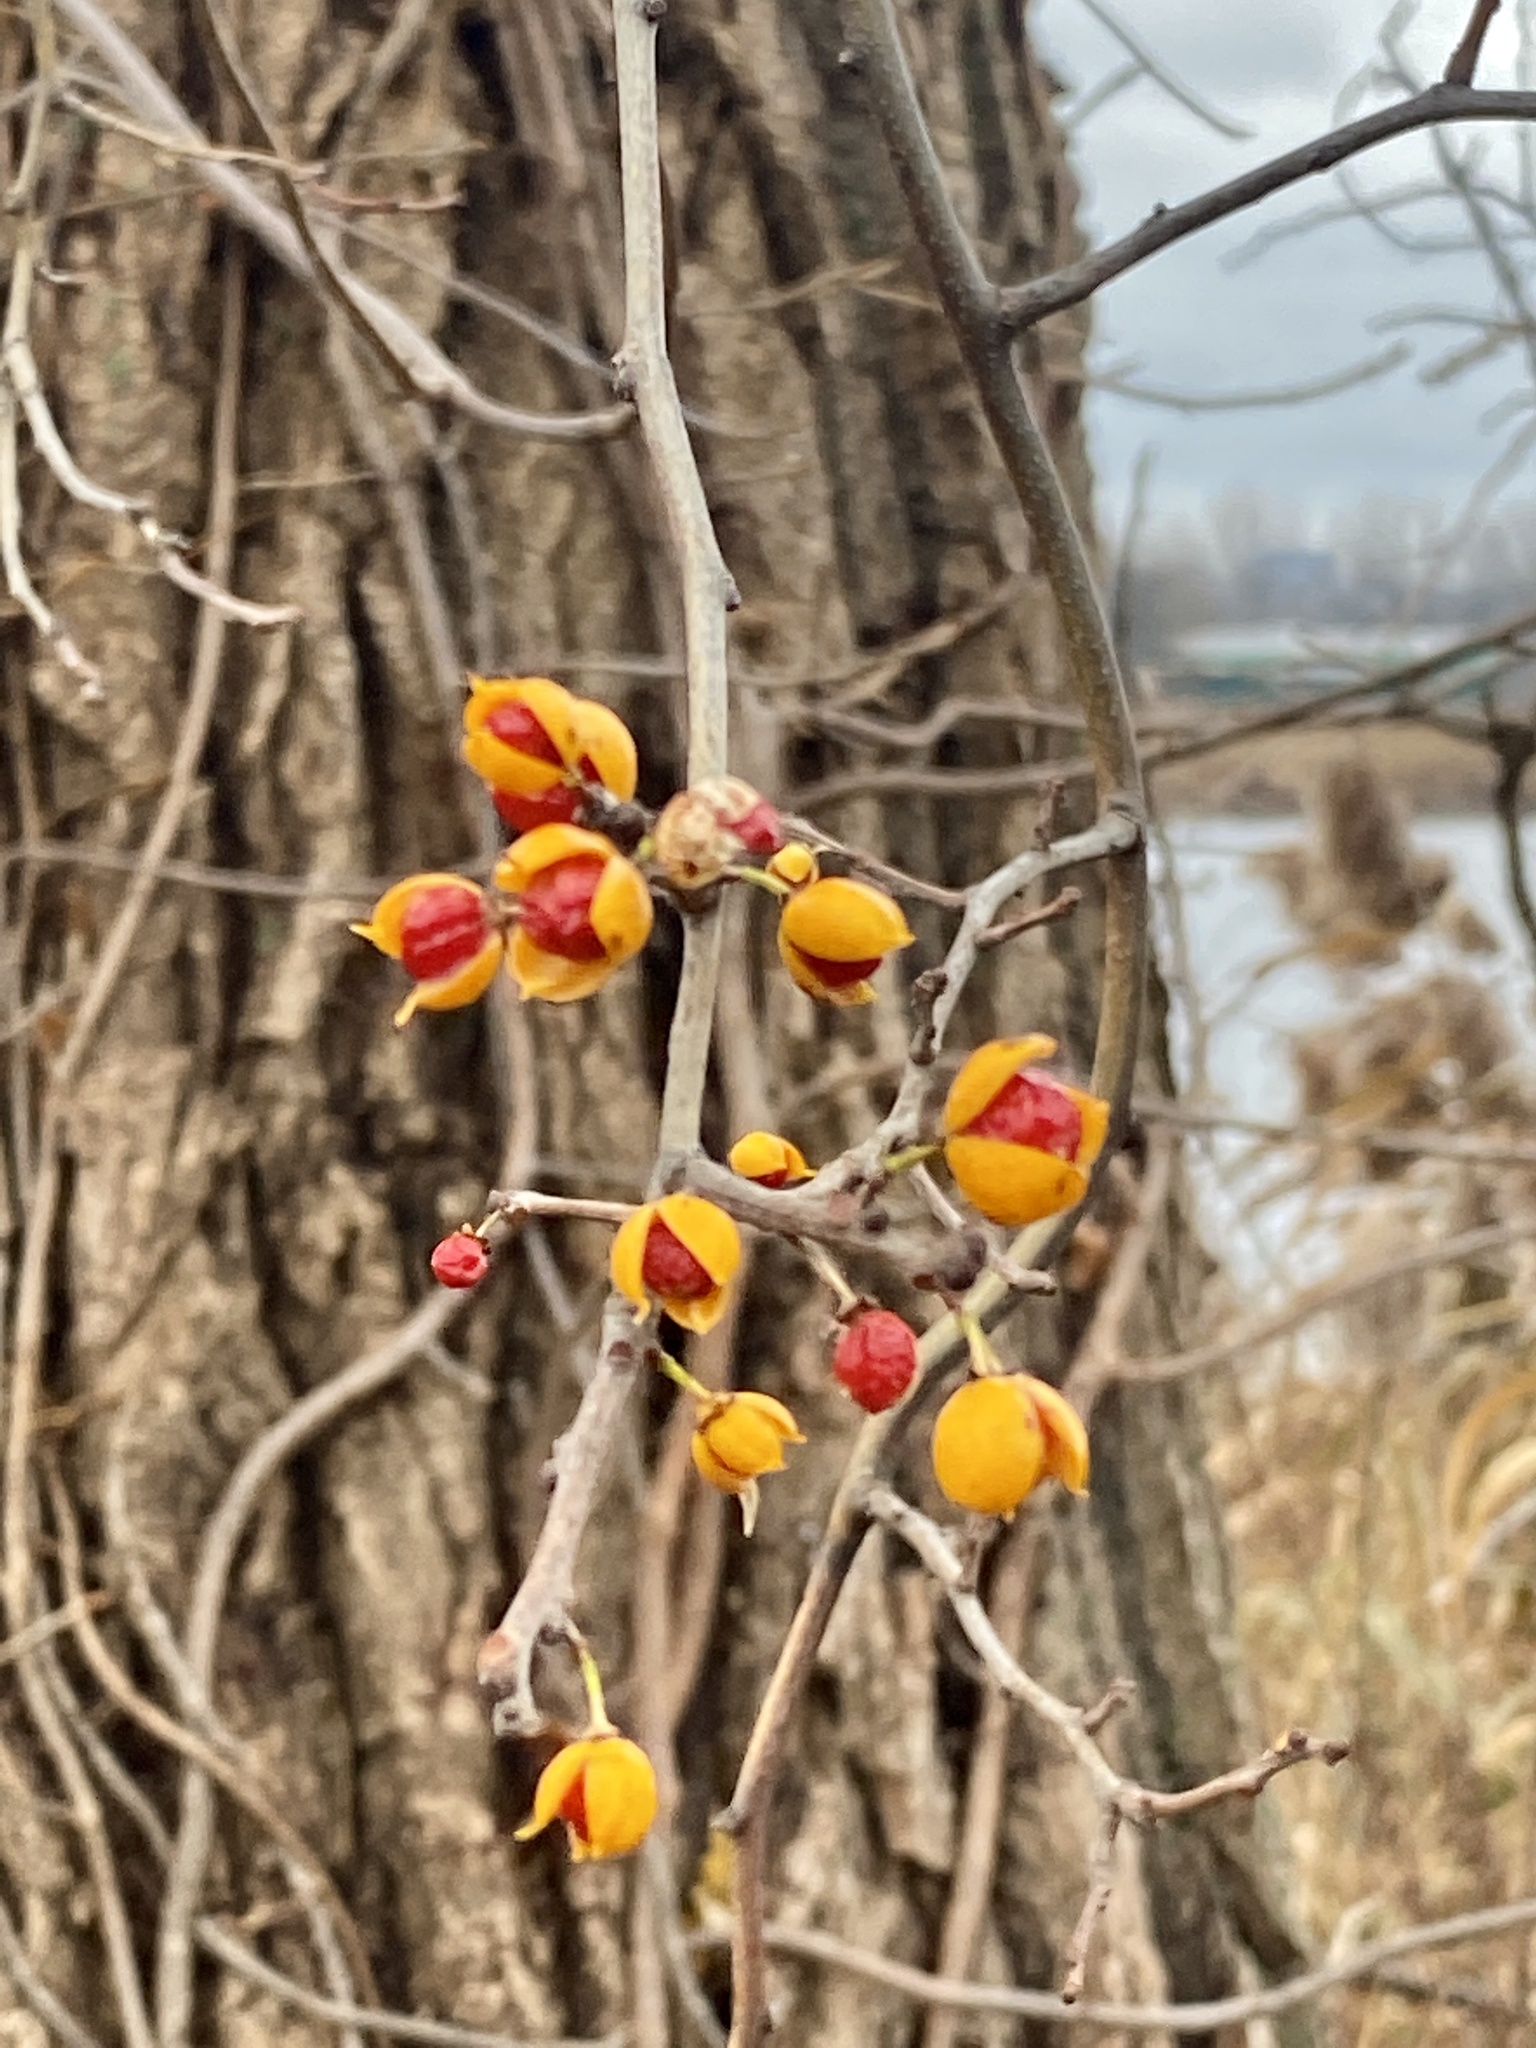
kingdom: Plantae
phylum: Tracheophyta
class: Magnoliopsida
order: Celastrales
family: Celastraceae
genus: Celastrus
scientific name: Celastrus orbiculatus
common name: Oriental bittersweet
